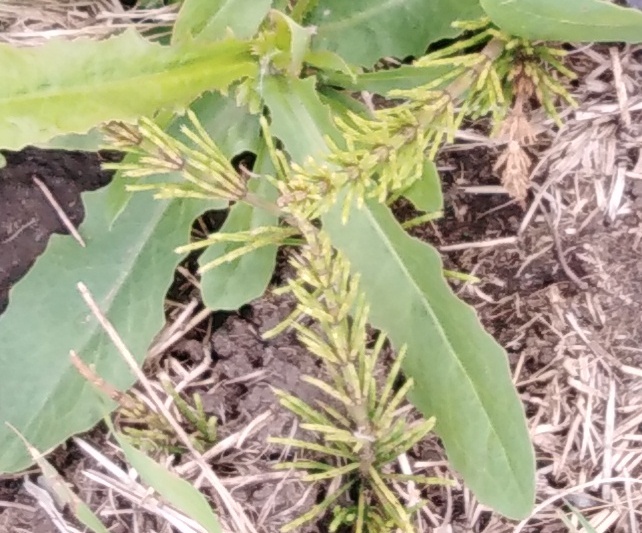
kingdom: Plantae
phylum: Tracheophyta
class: Polypodiopsida
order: Equisetales
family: Equisetaceae
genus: Equisetum
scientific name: Equisetum arvense
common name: Field horsetail
